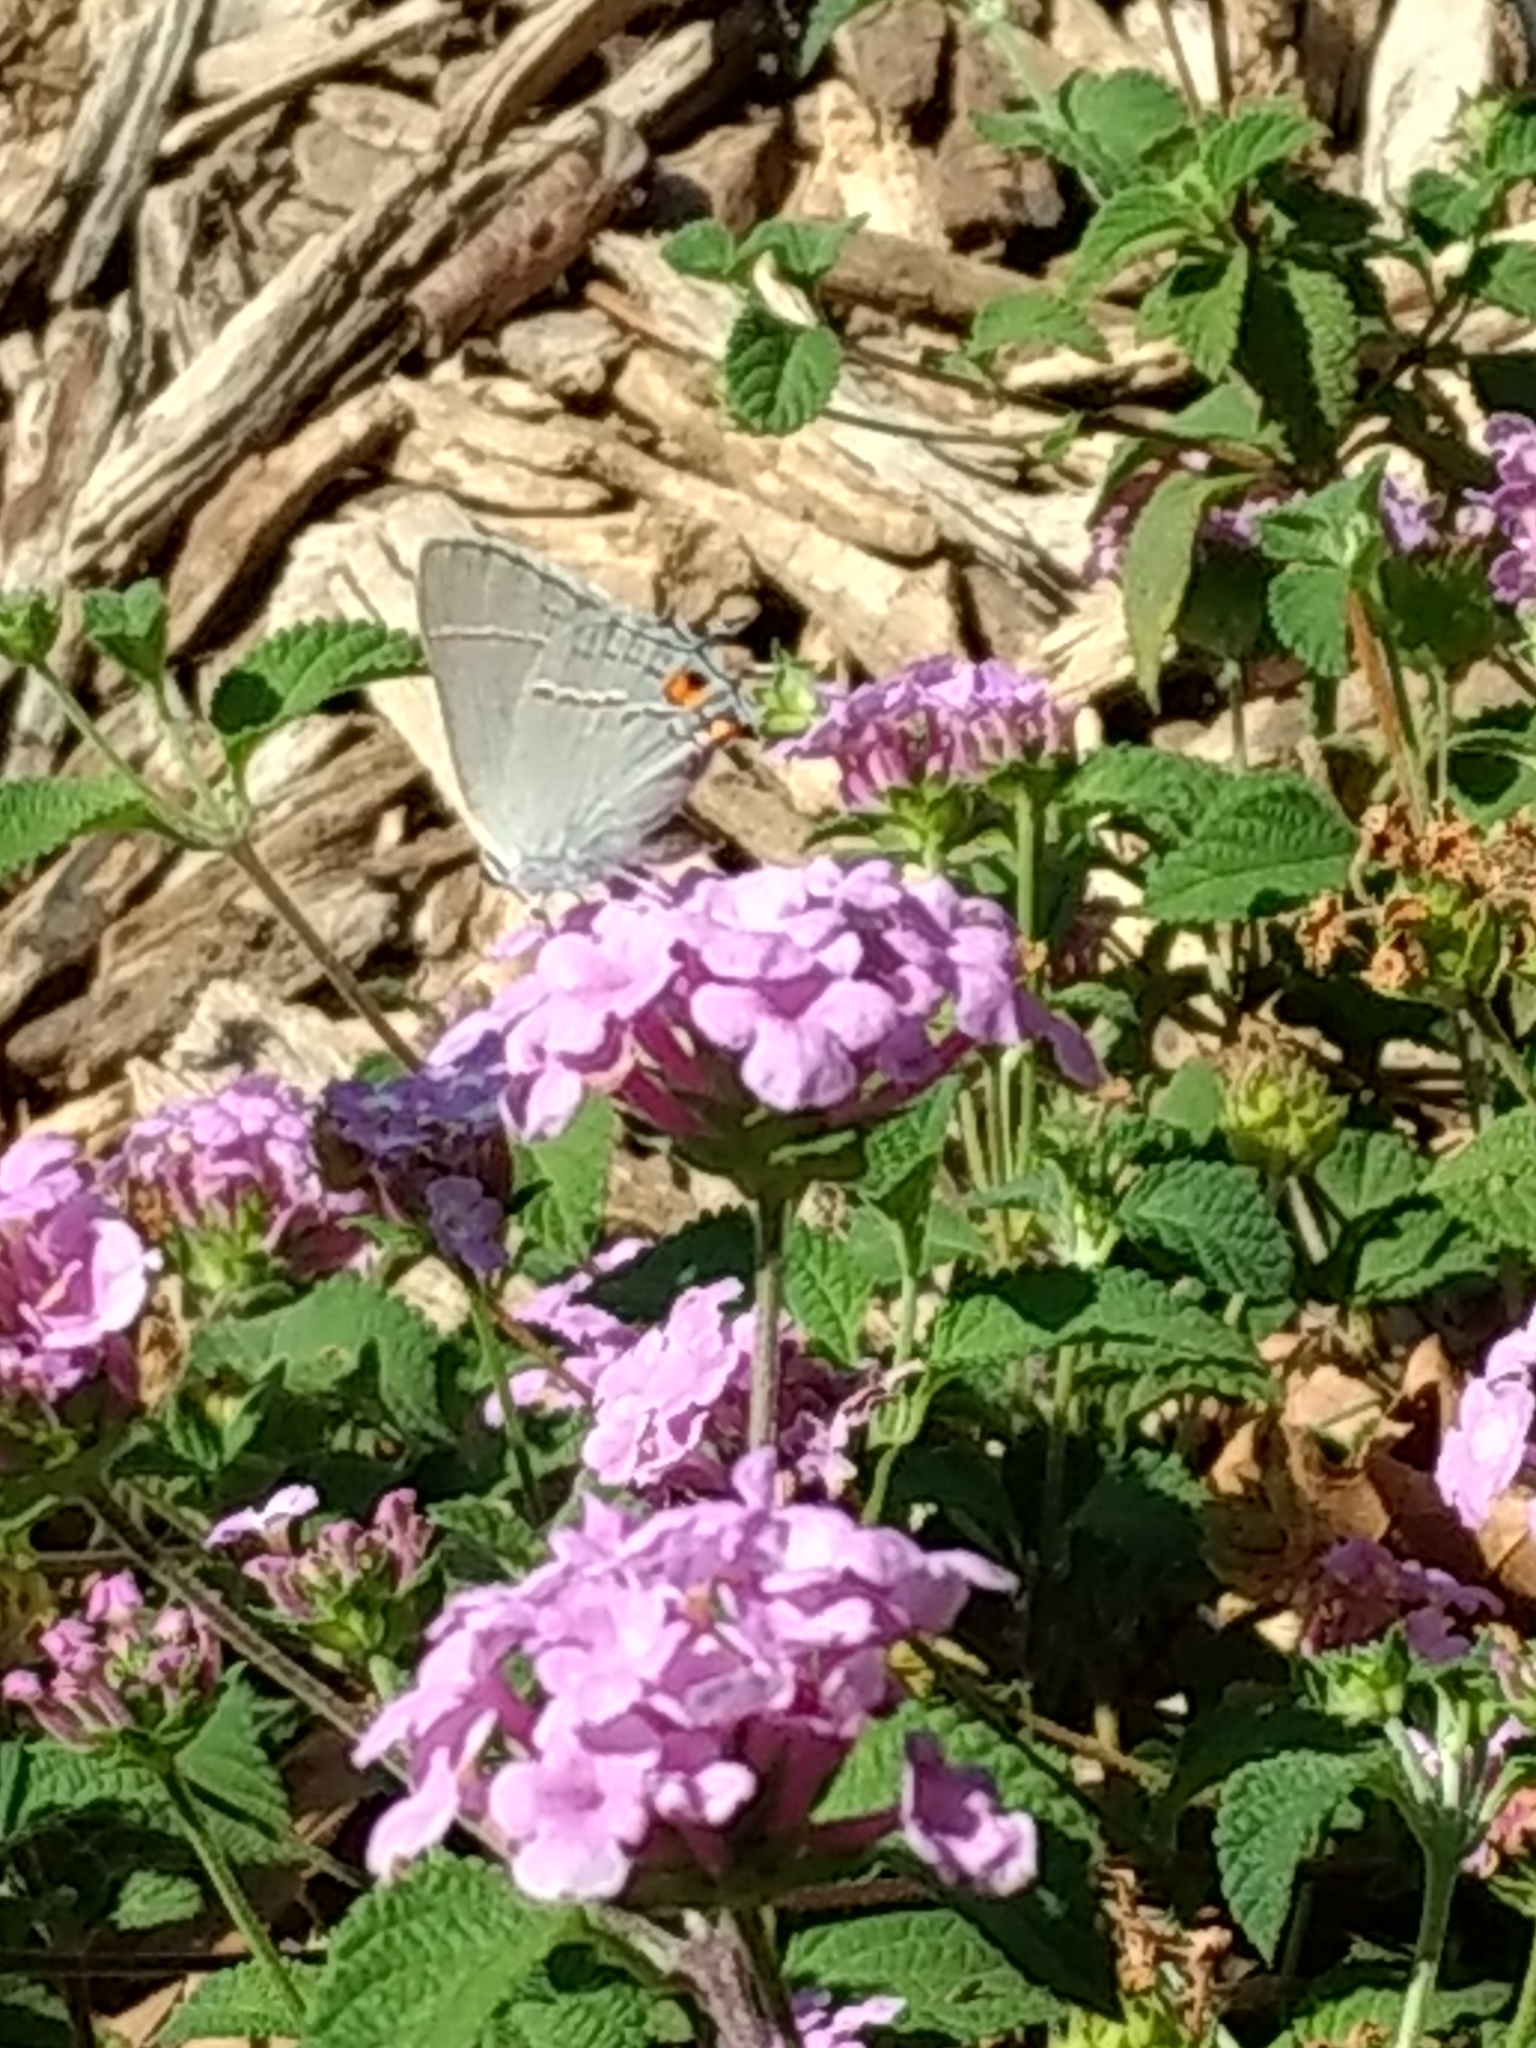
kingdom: Animalia
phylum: Arthropoda
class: Insecta
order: Lepidoptera
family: Lycaenidae
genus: Strymon
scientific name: Strymon melinus
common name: Gray hairstreak
